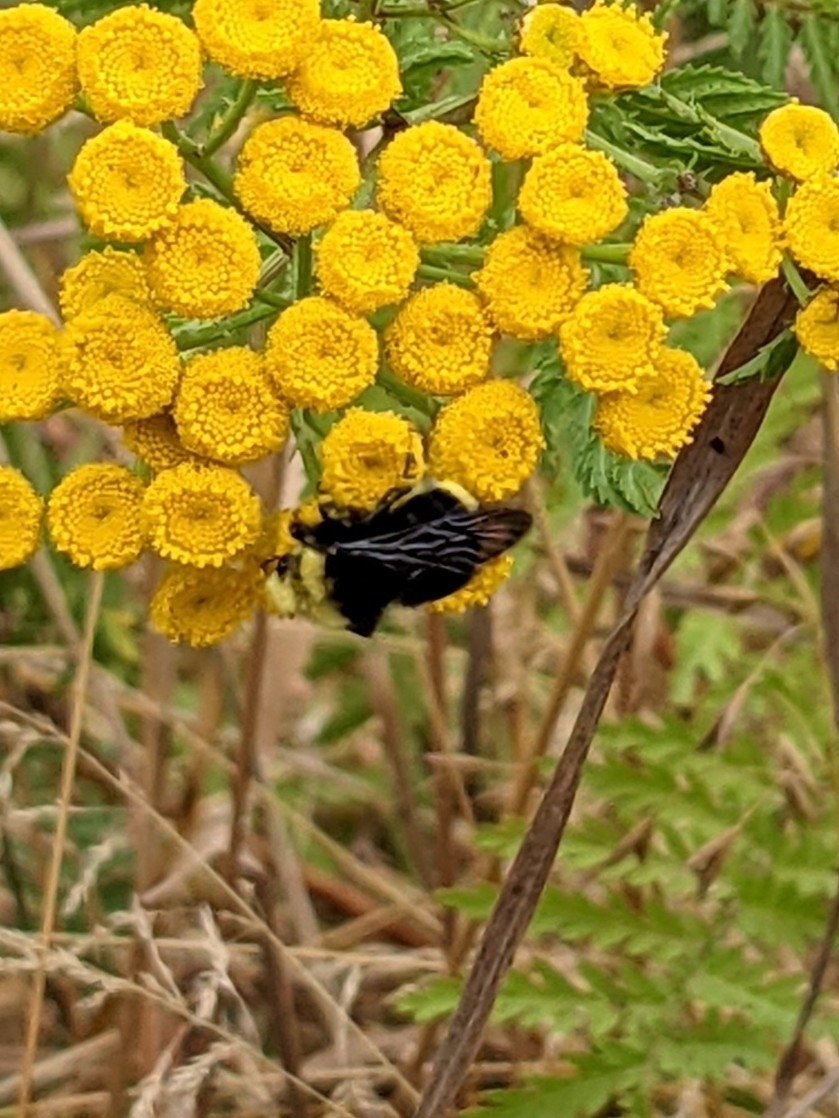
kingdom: Animalia
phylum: Arthropoda
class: Insecta
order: Hymenoptera
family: Apidae
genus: Bombus
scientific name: Bombus vosnesenskii
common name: Vosnesensky bumble bee
